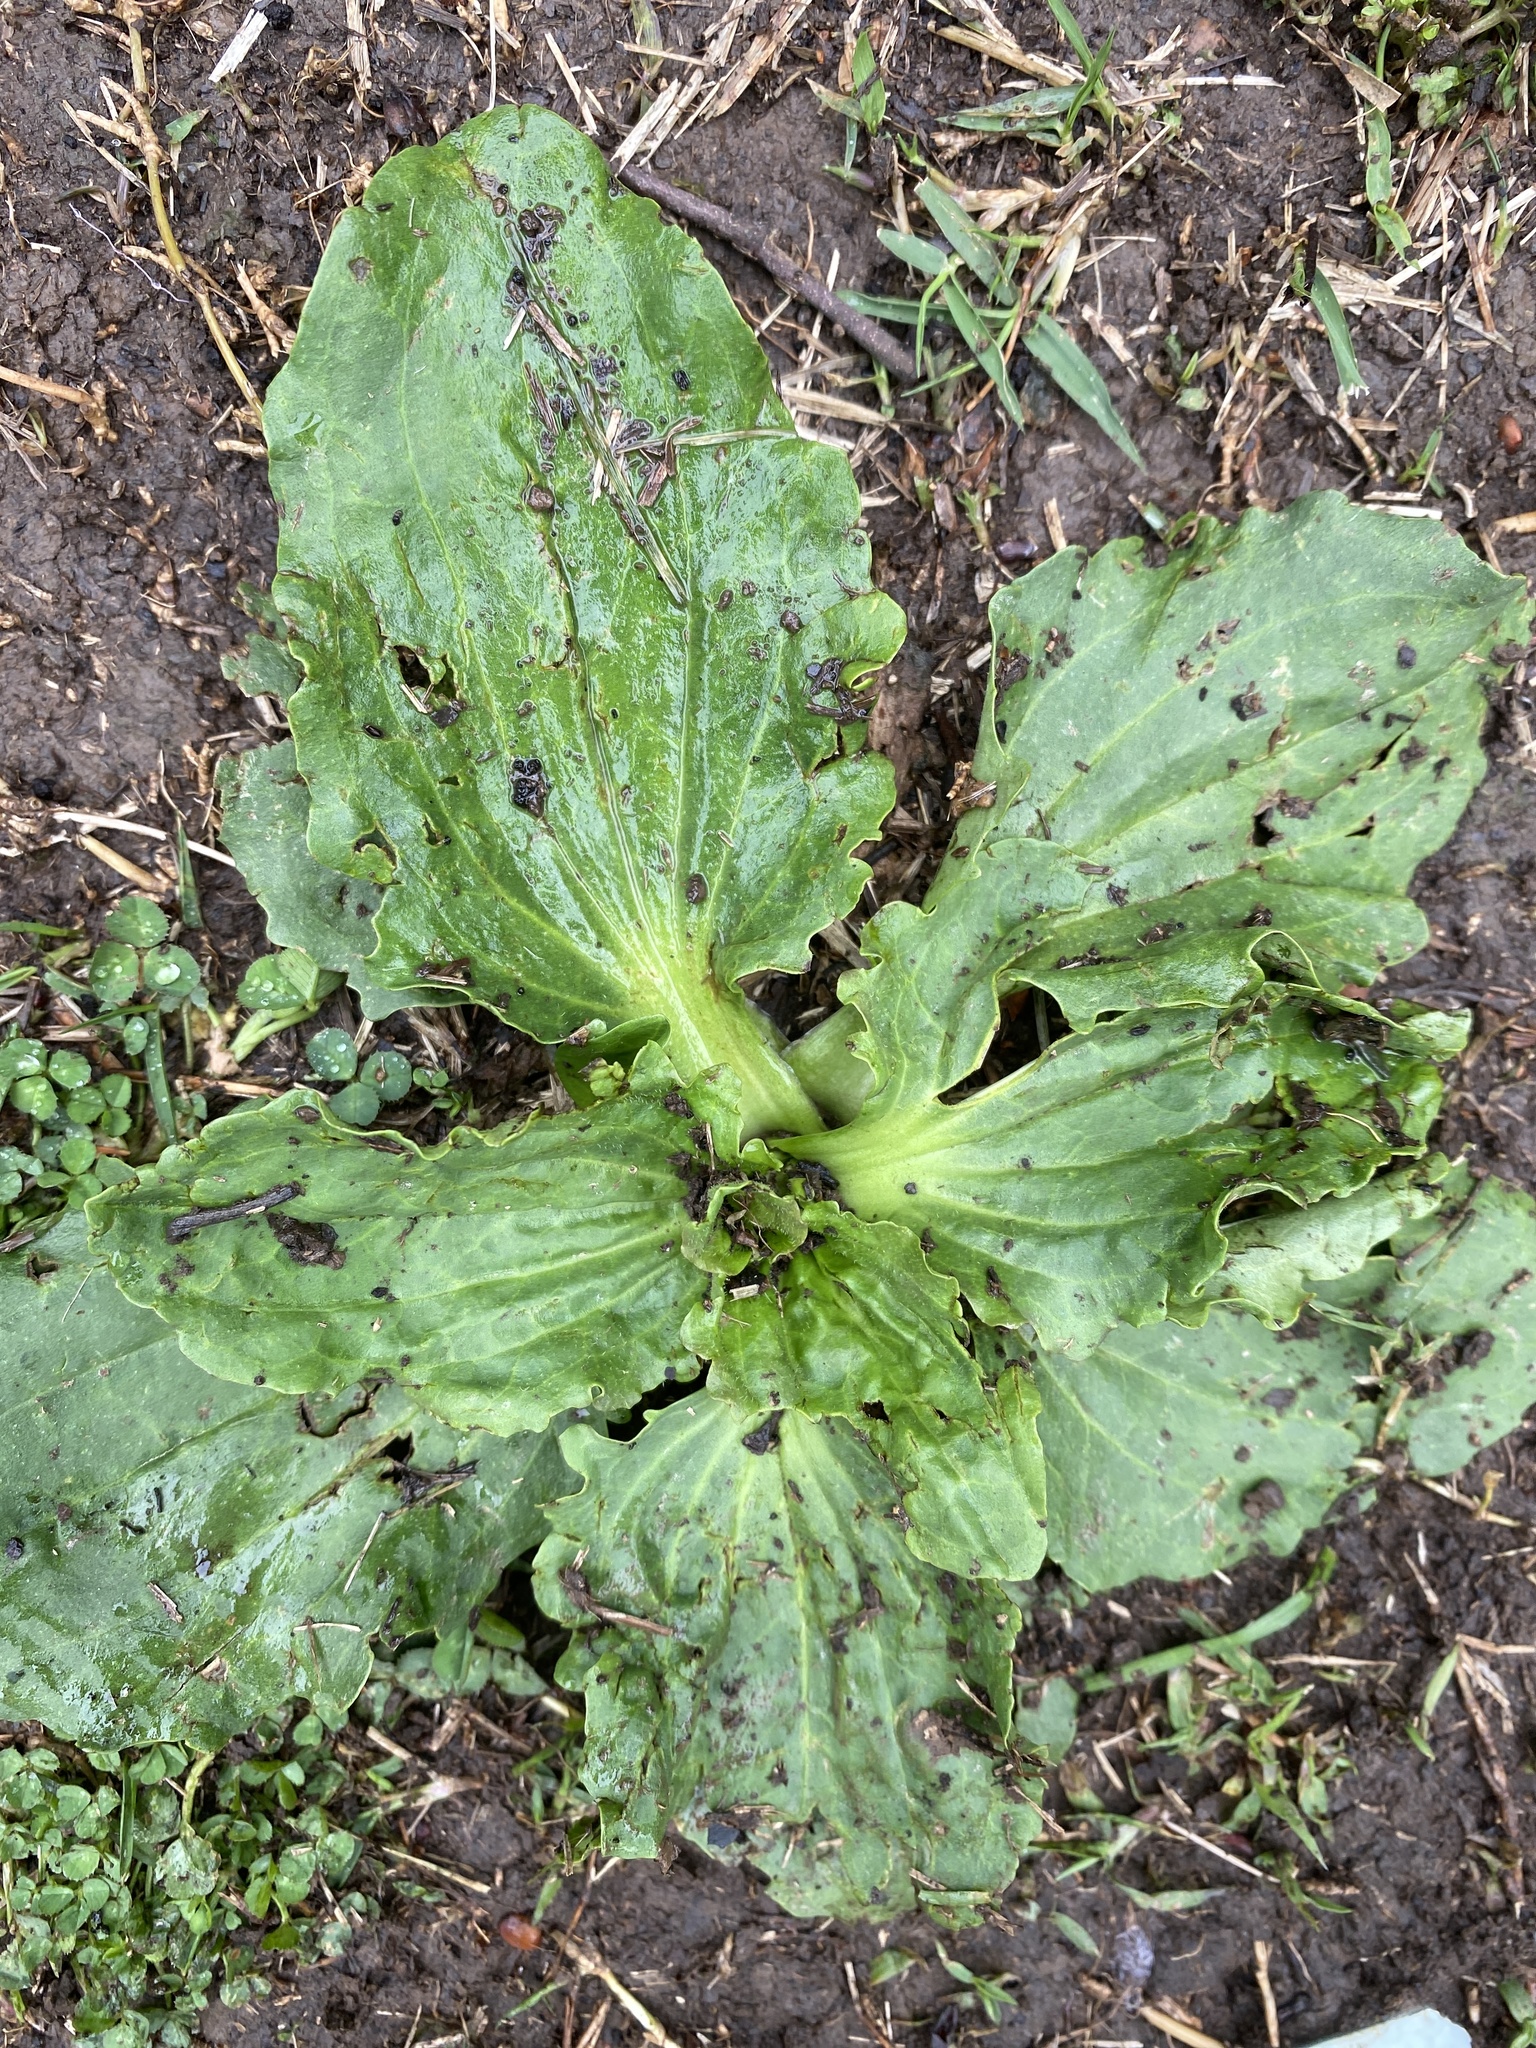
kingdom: Plantae
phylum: Tracheophyta
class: Magnoliopsida
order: Lamiales
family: Plantaginaceae
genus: Plantago
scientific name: Plantago major
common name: Common plantain
